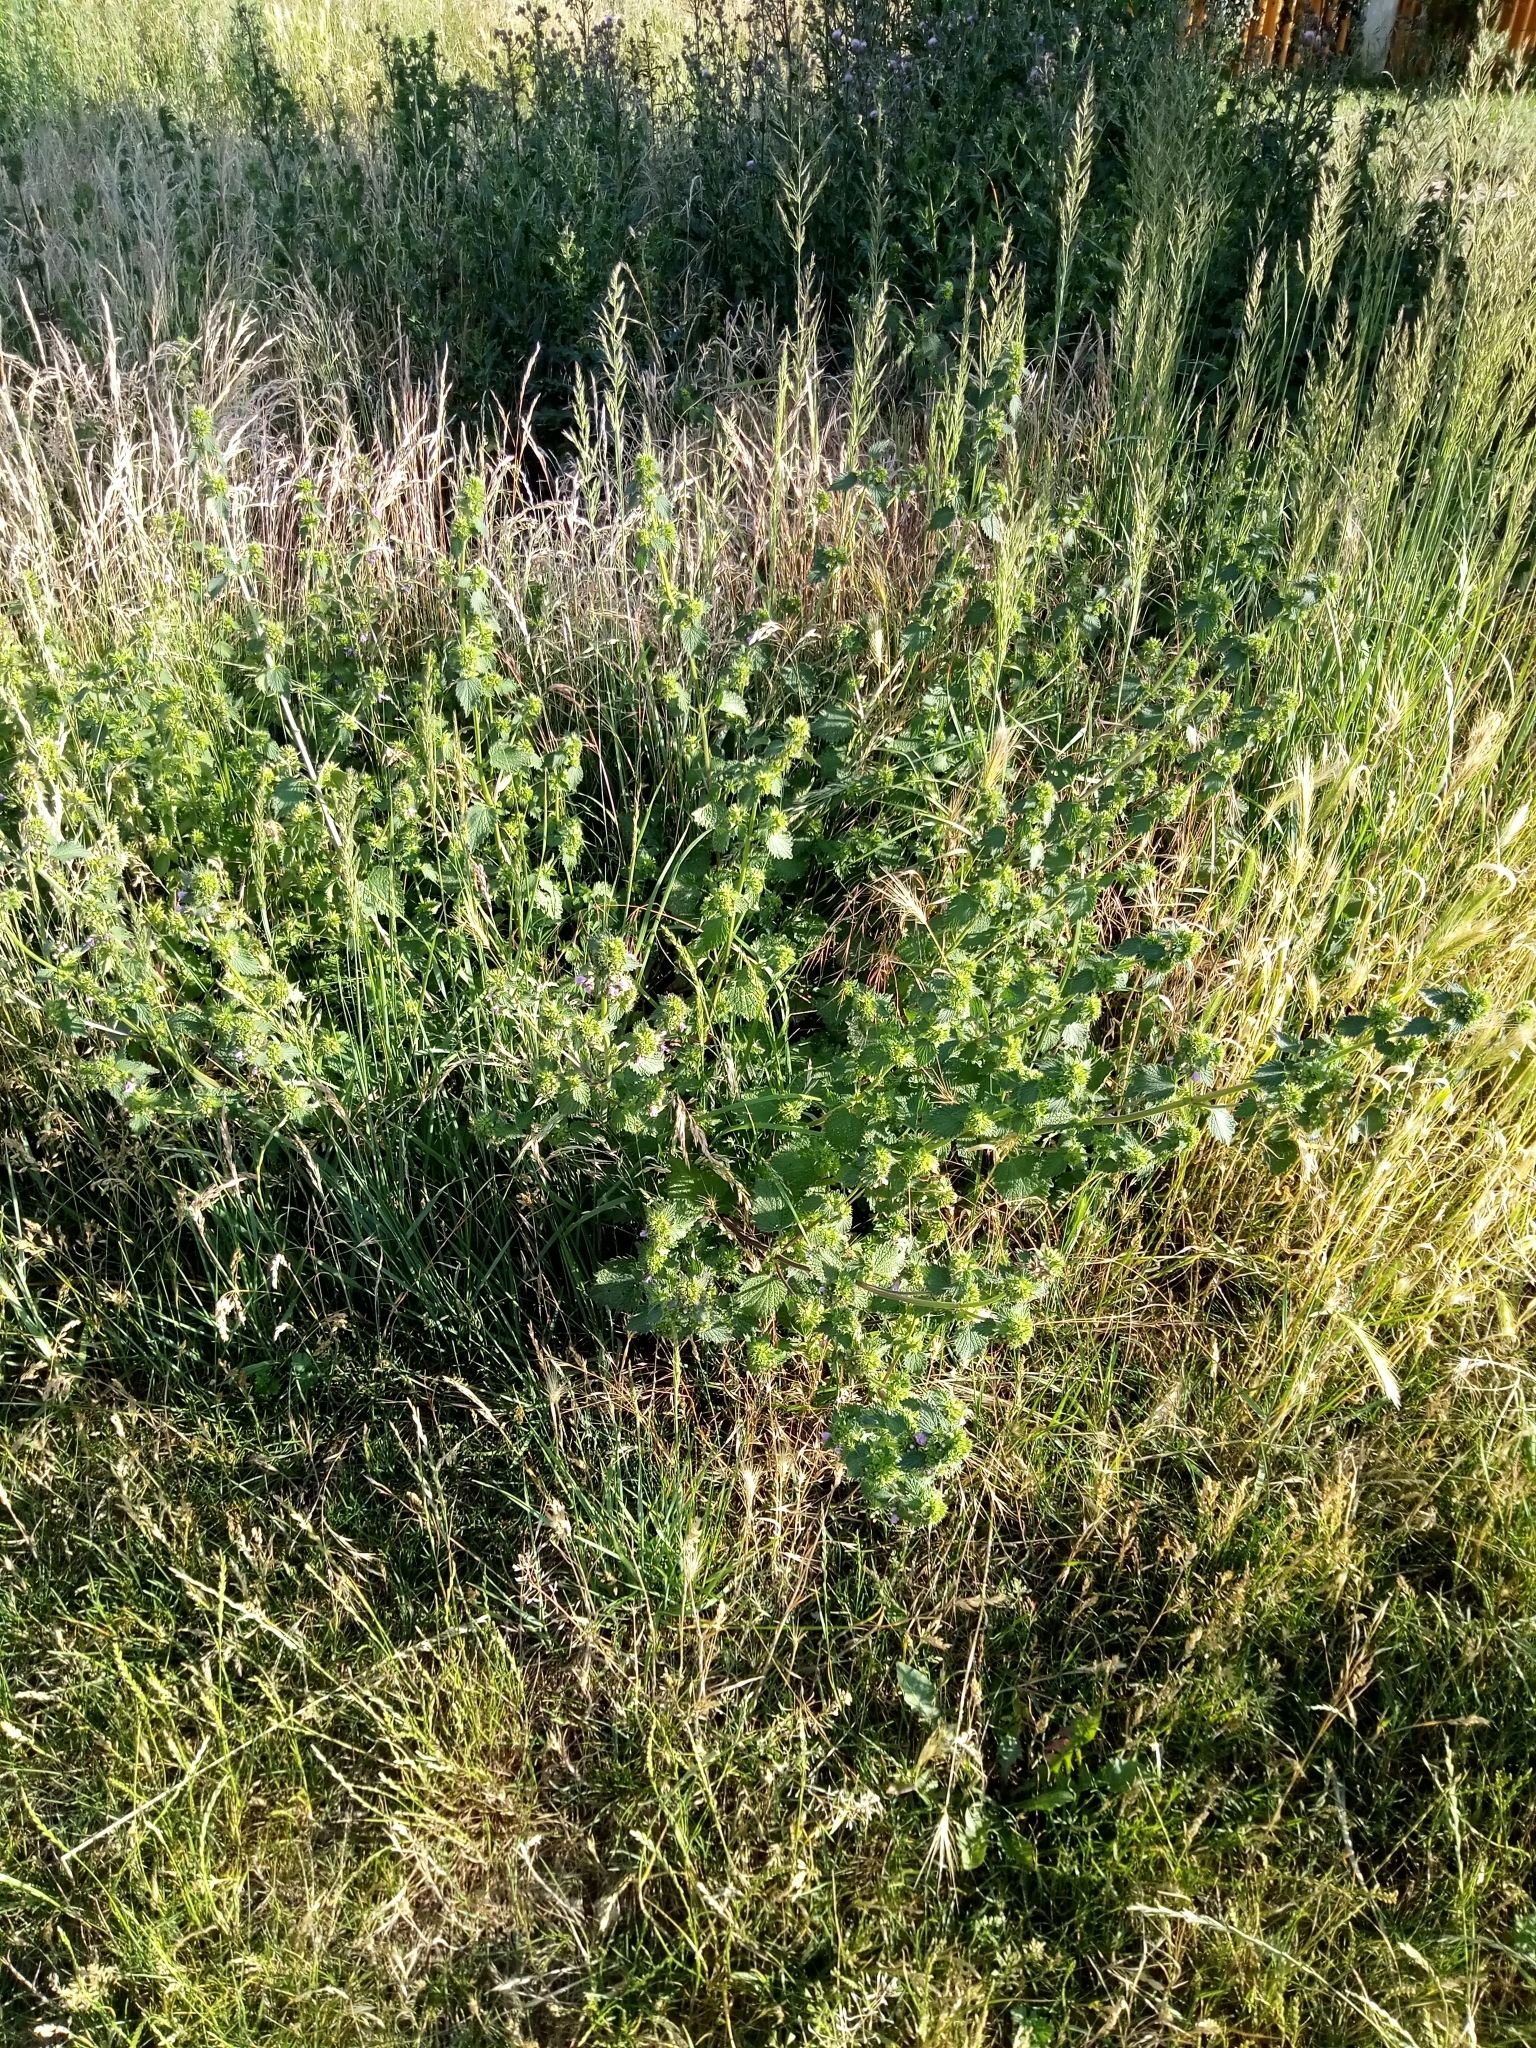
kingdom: Plantae
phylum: Tracheophyta
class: Magnoliopsida
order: Lamiales
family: Lamiaceae
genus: Ballota
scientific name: Ballota nigra
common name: Black horehound
